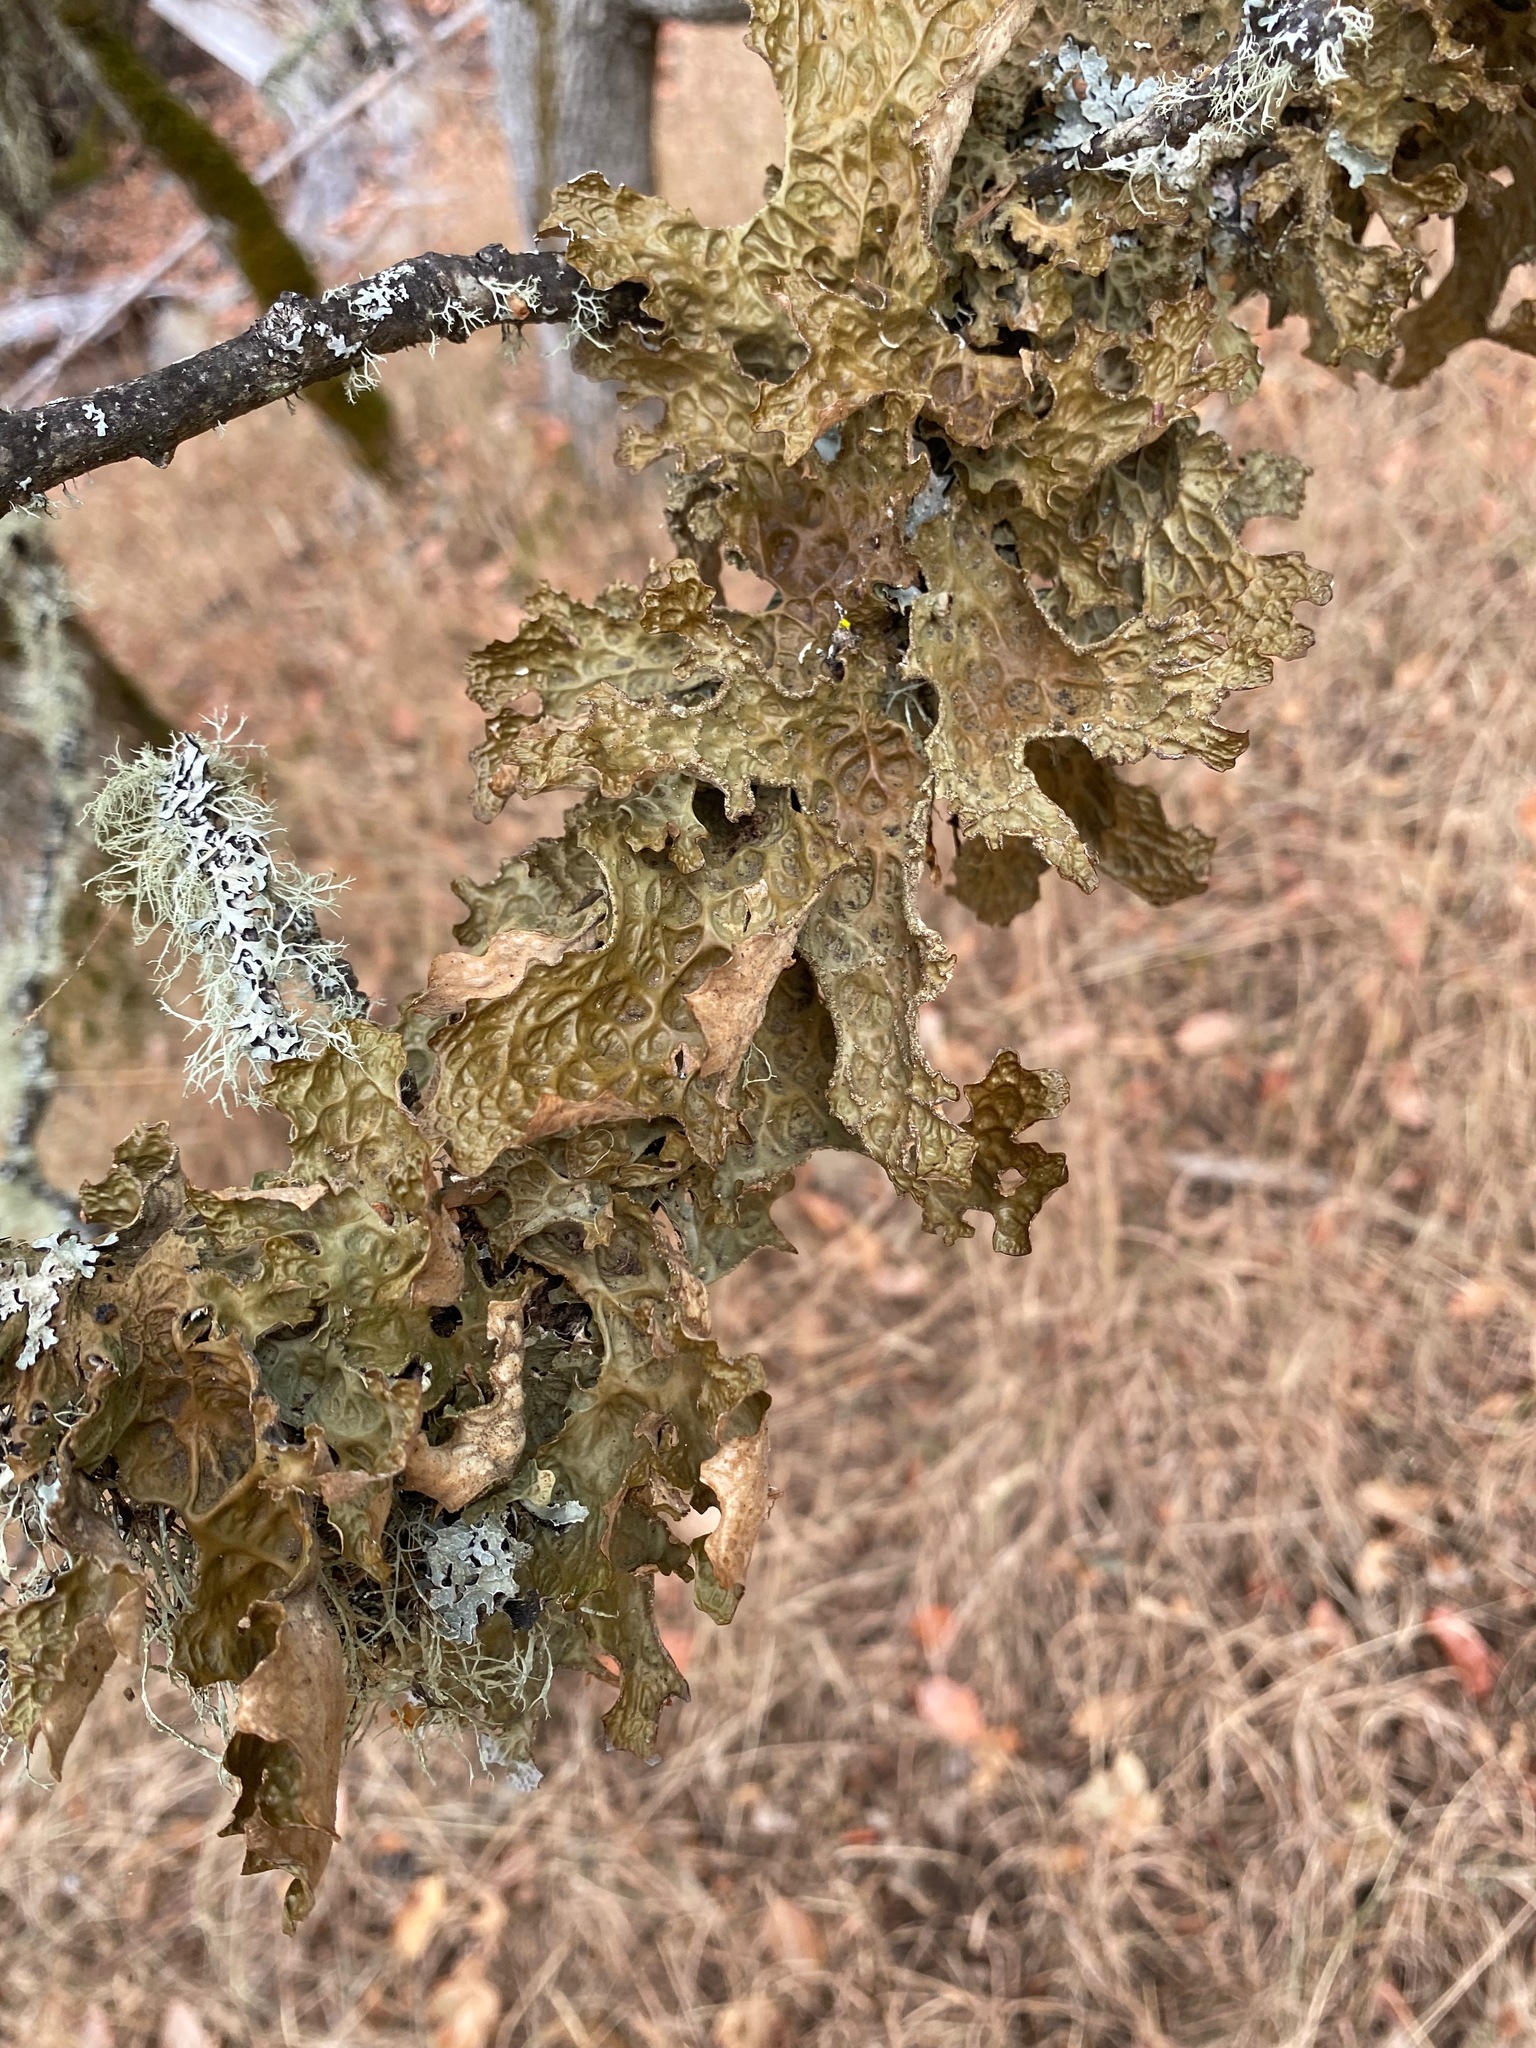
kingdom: Fungi
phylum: Ascomycota
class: Lecanoromycetes
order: Peltigerales
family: Lobariaceae
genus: Lobaria
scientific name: Lobaria pulmonaria
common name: Lungwort
